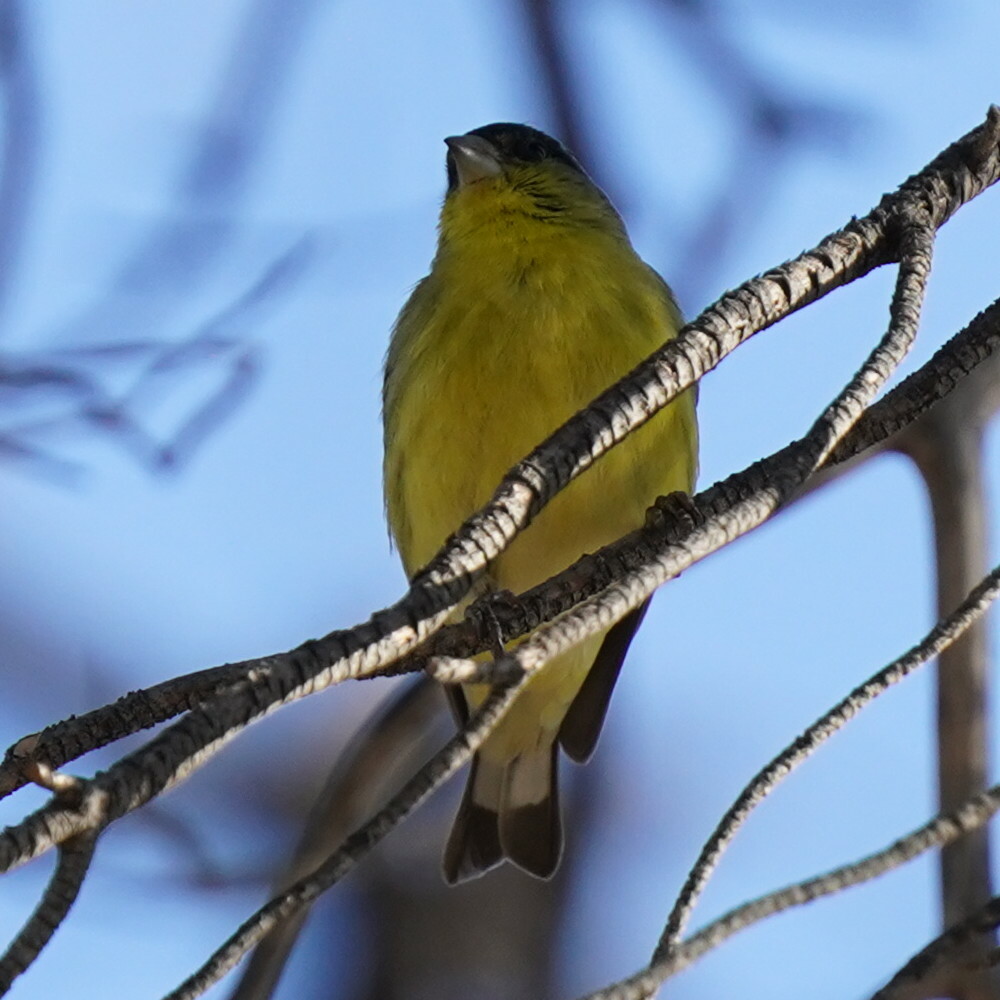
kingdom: Animalia
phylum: Chordata
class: Aves
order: Passeriformes
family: Fringillidae
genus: Spinus
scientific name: Spinus psaltria
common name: Lesser goldfinch
